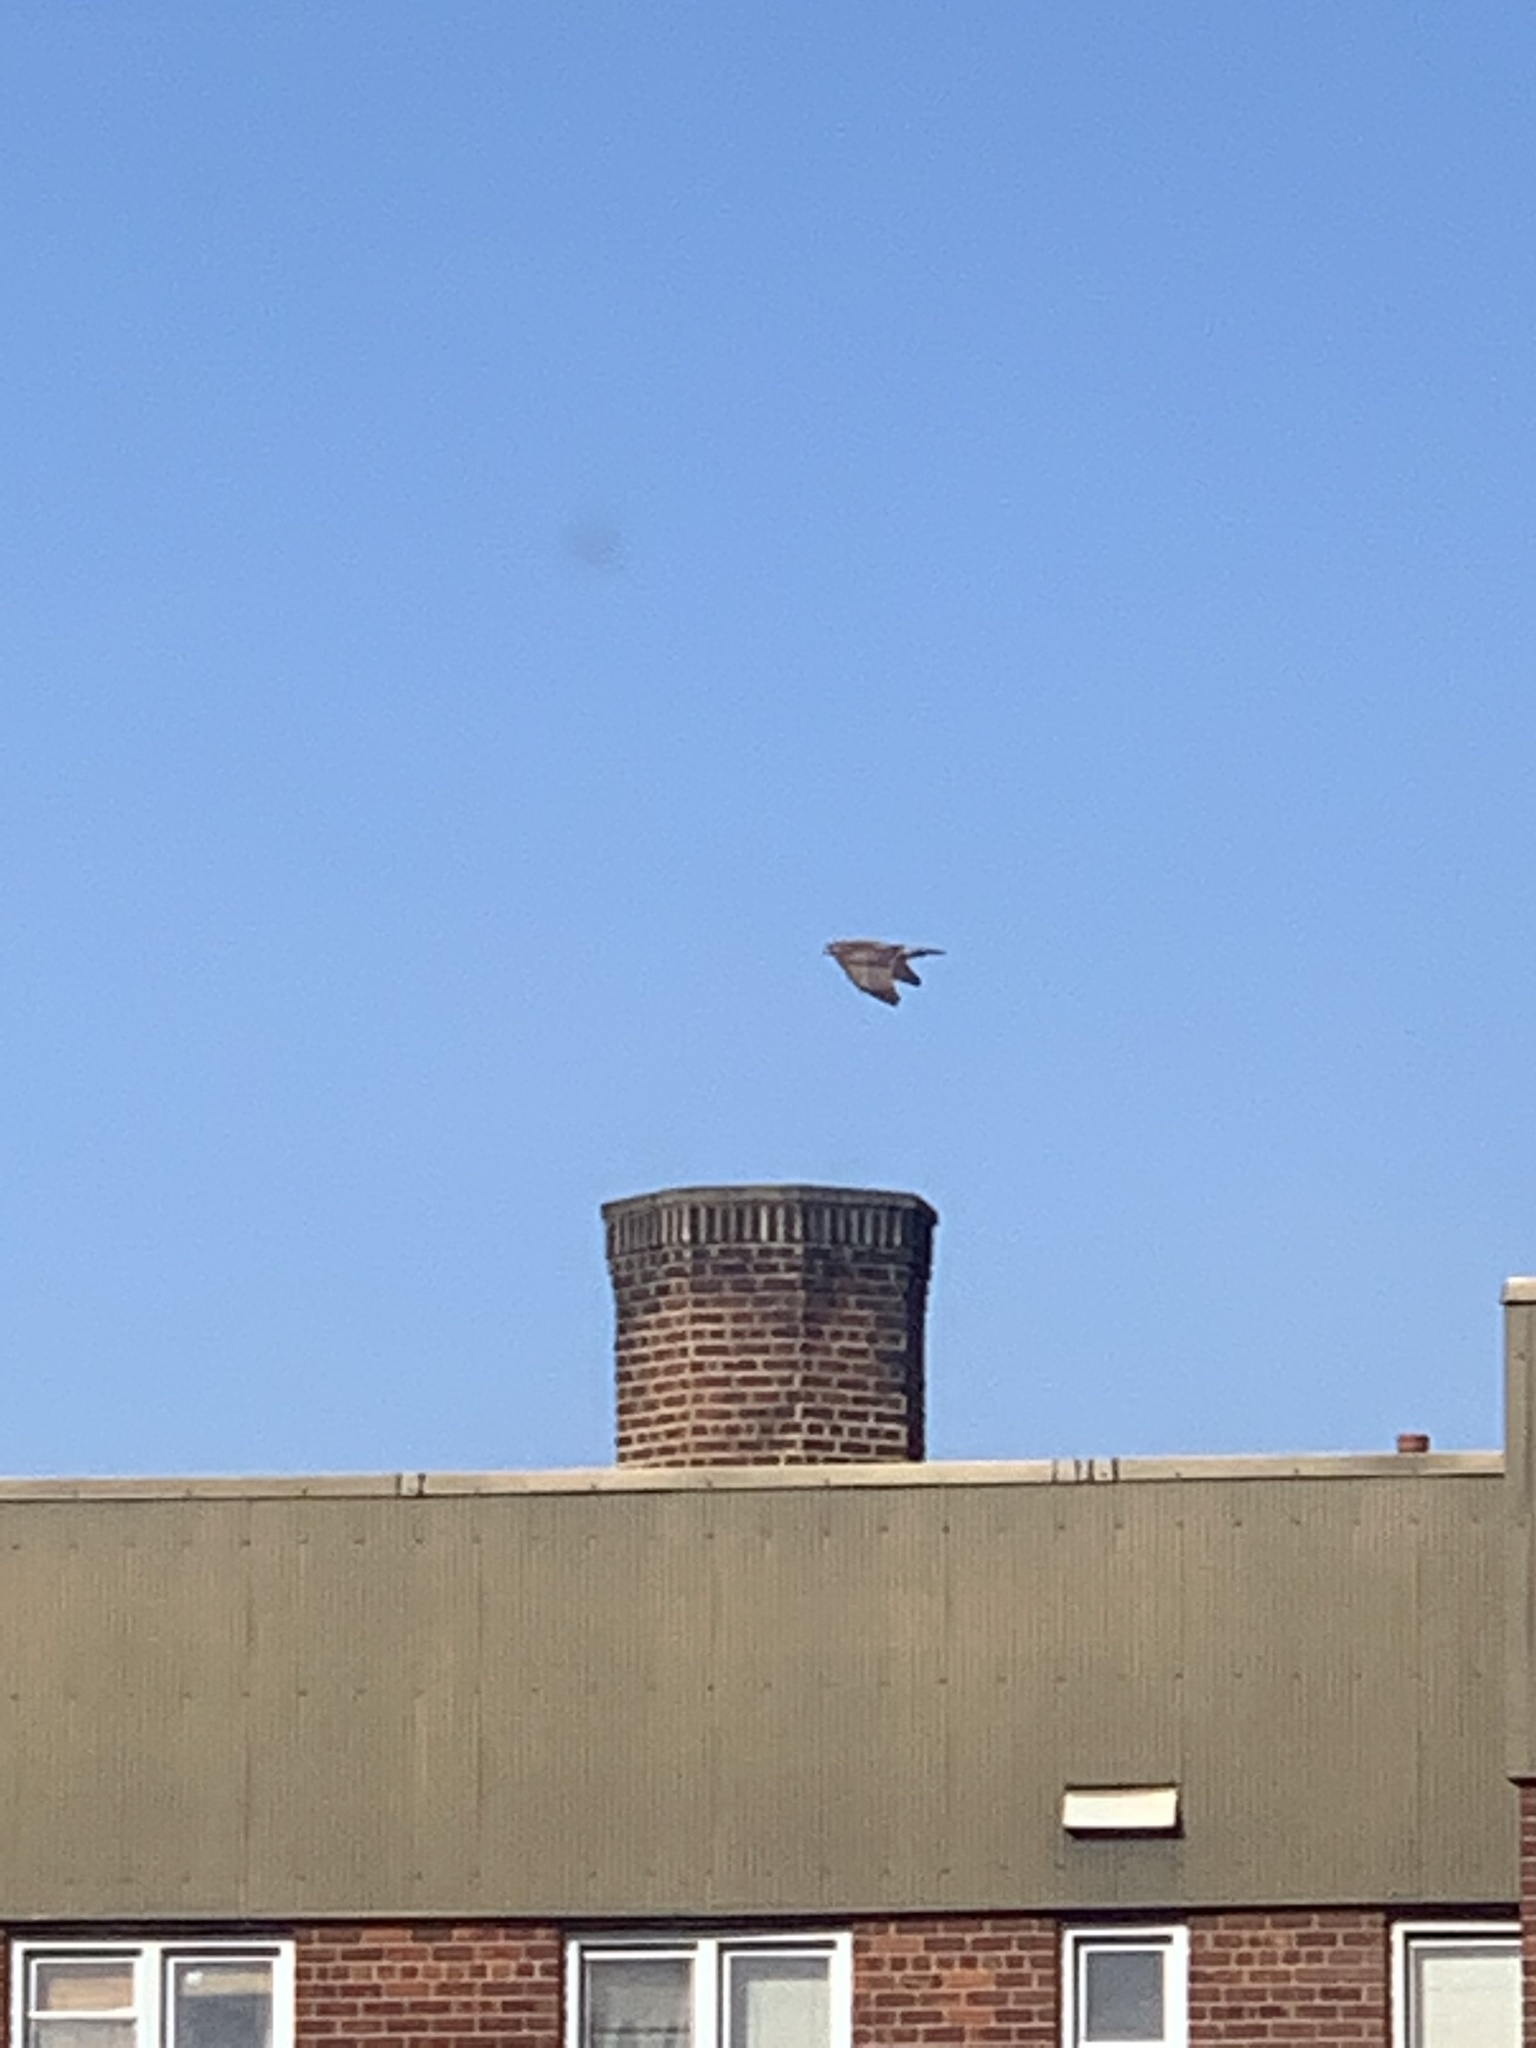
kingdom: Animalia
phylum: Chordata
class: Aves
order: Accipitriformes
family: Accipitridae
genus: Buteo
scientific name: Buteo jamaicensis
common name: Red-tailed hawk
